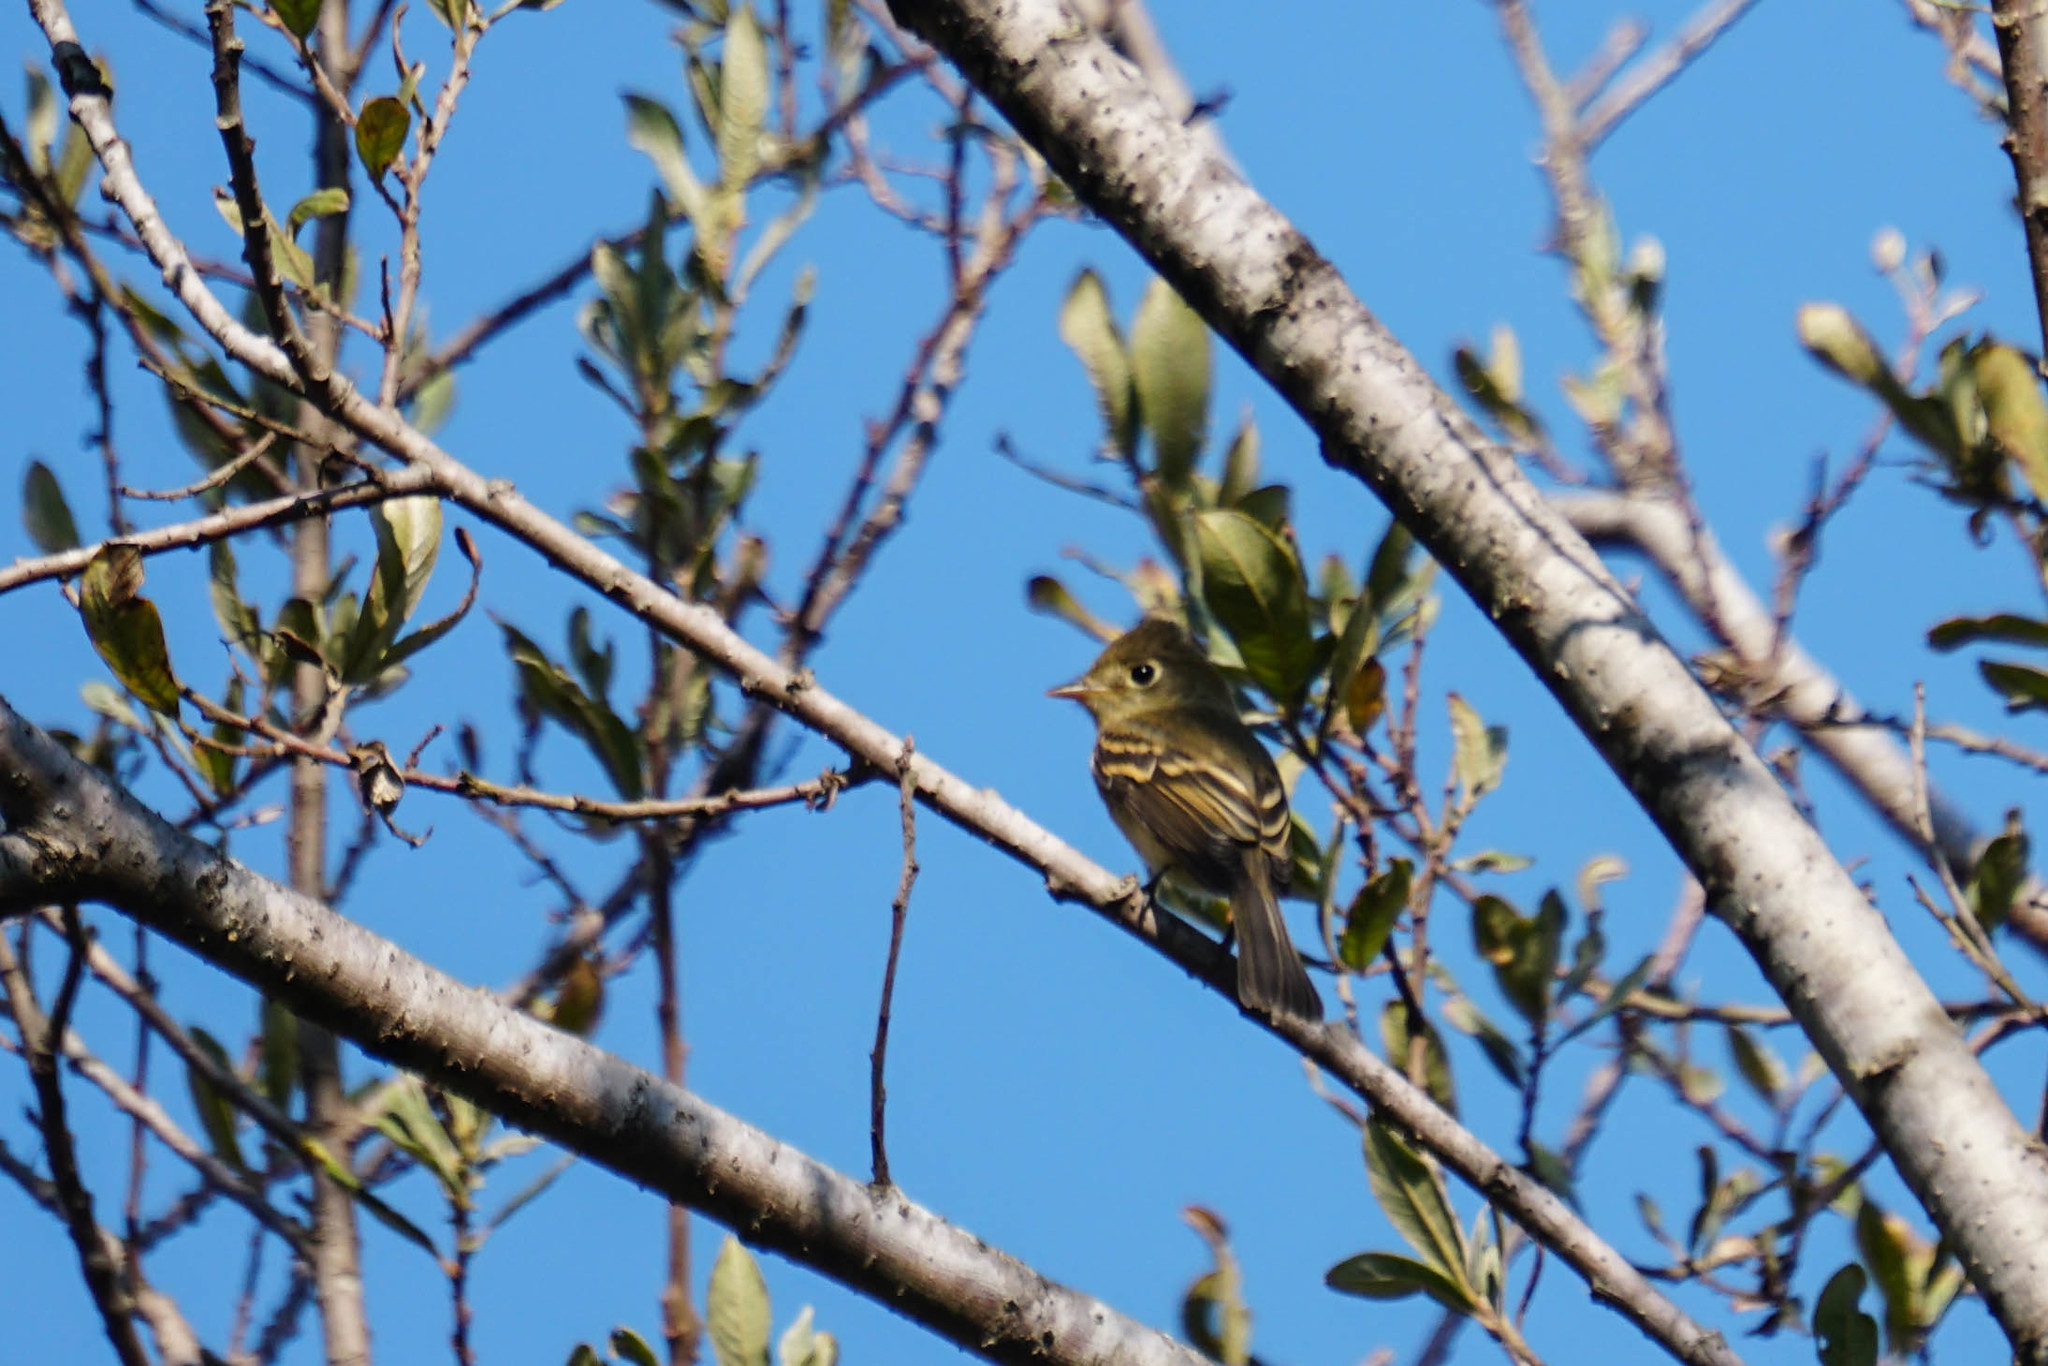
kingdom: Animalia
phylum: Chordata
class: Aves
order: Passeriformes
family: Tyrannidae
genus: Empidonax
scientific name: Empidonax difficilis
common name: Pacific-slope flycatcher
